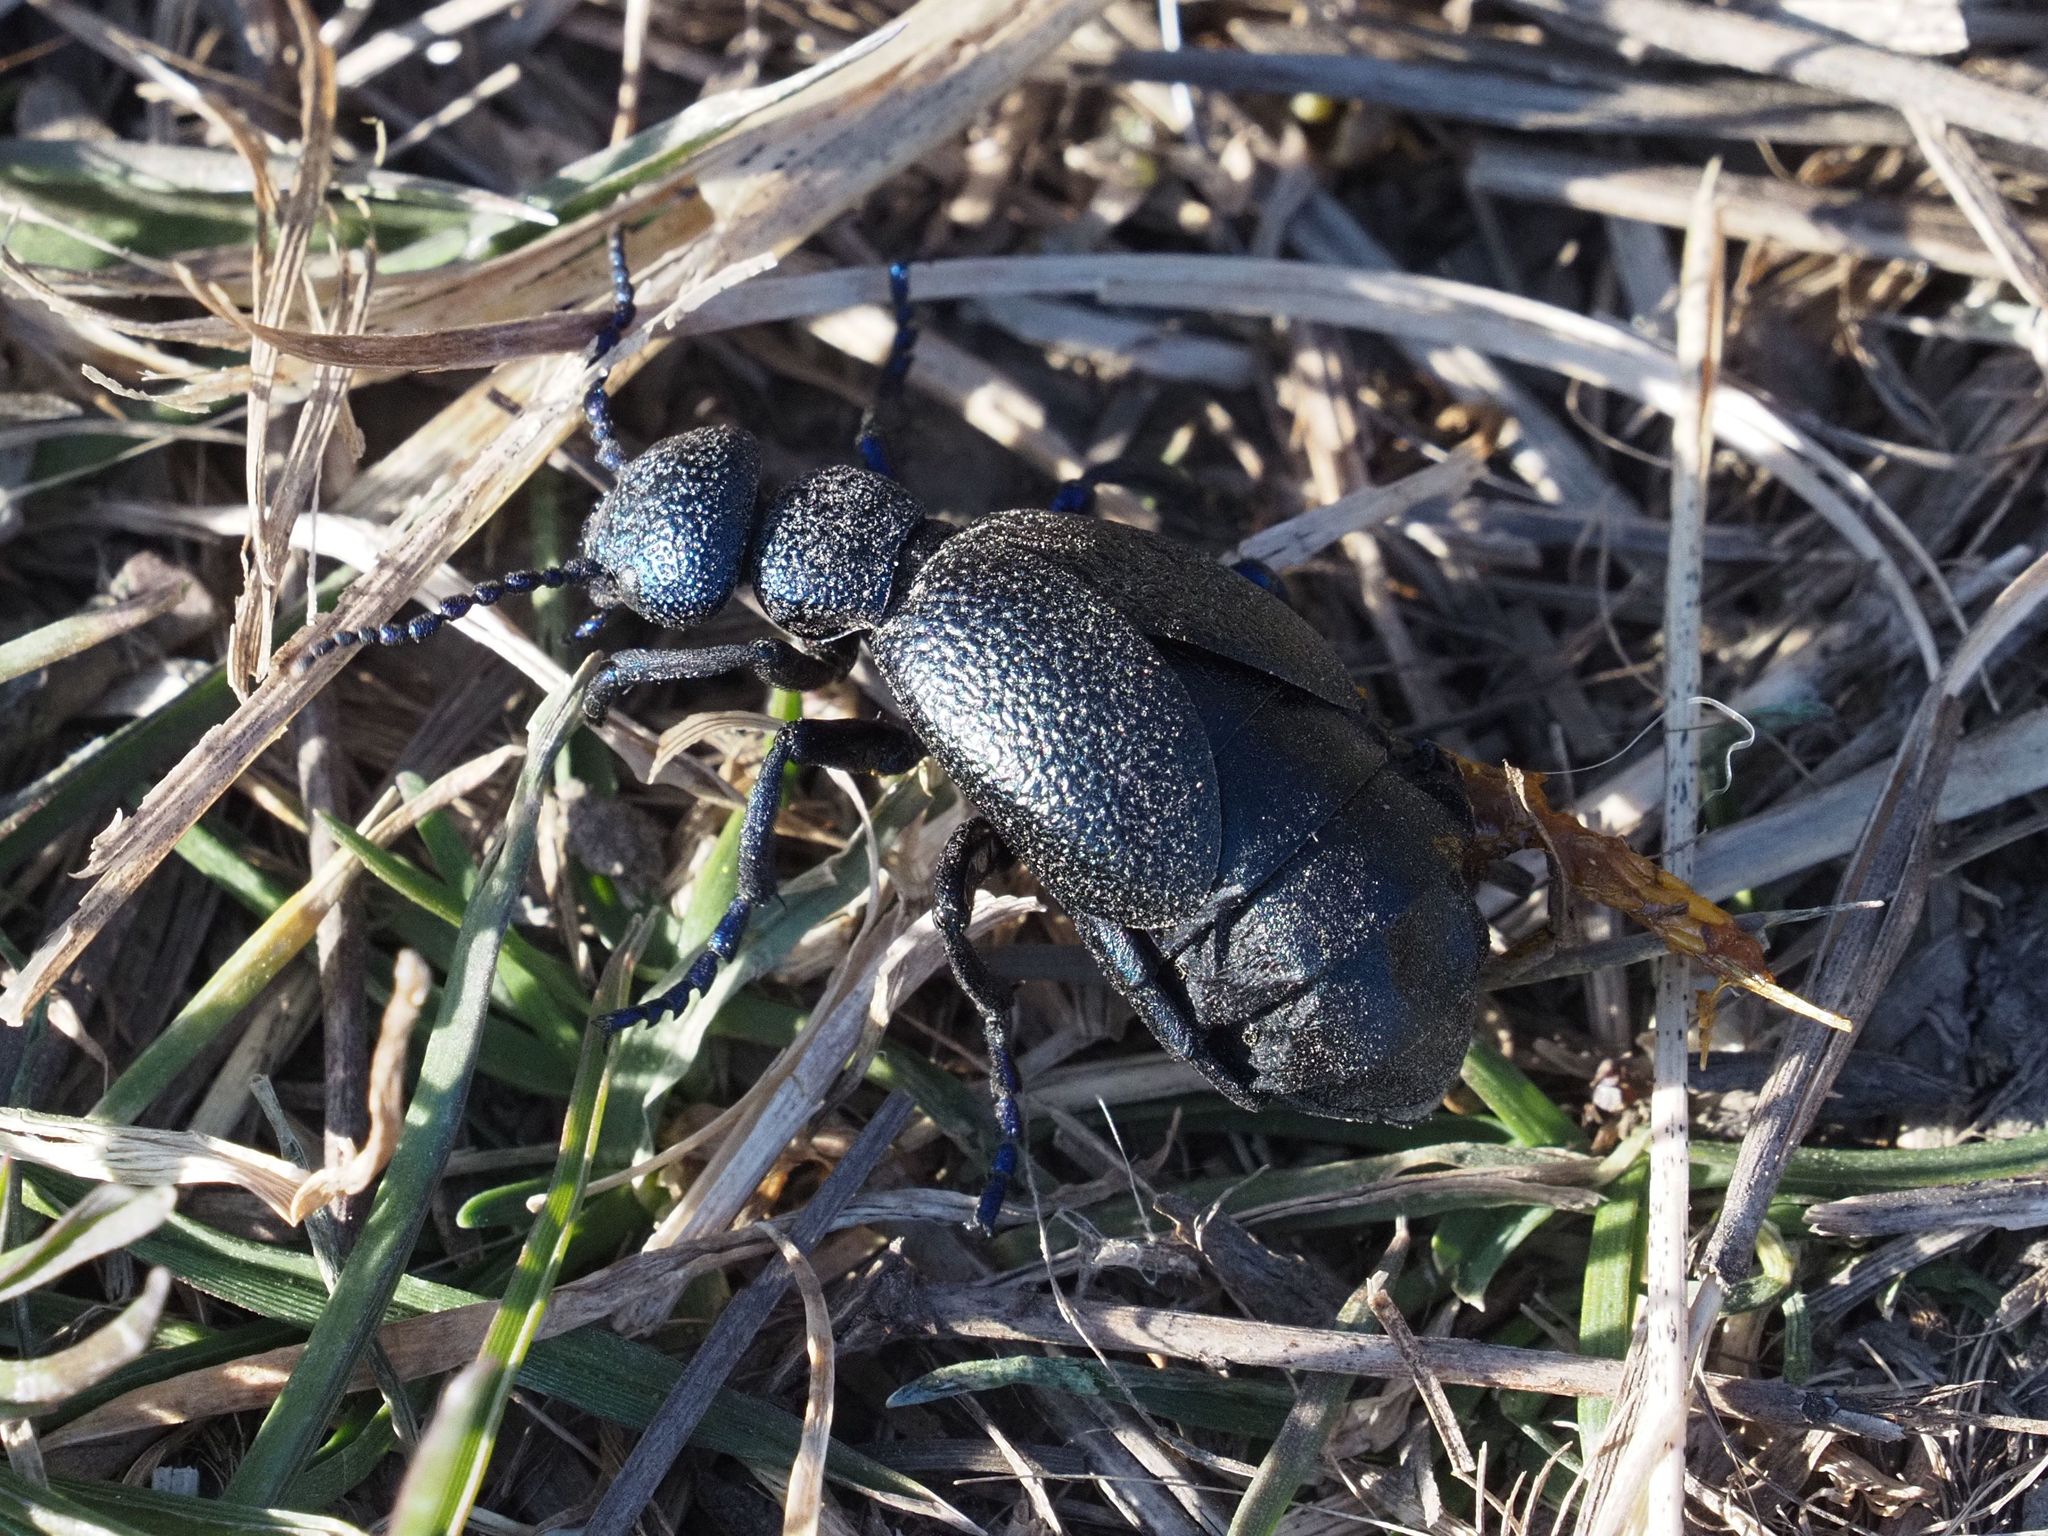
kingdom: Animalia
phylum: Arthropoda
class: Insecta
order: Coleoptera
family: Meloidae
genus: Meloe
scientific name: Meloe proscarabaeus
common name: Black oil-beetle
